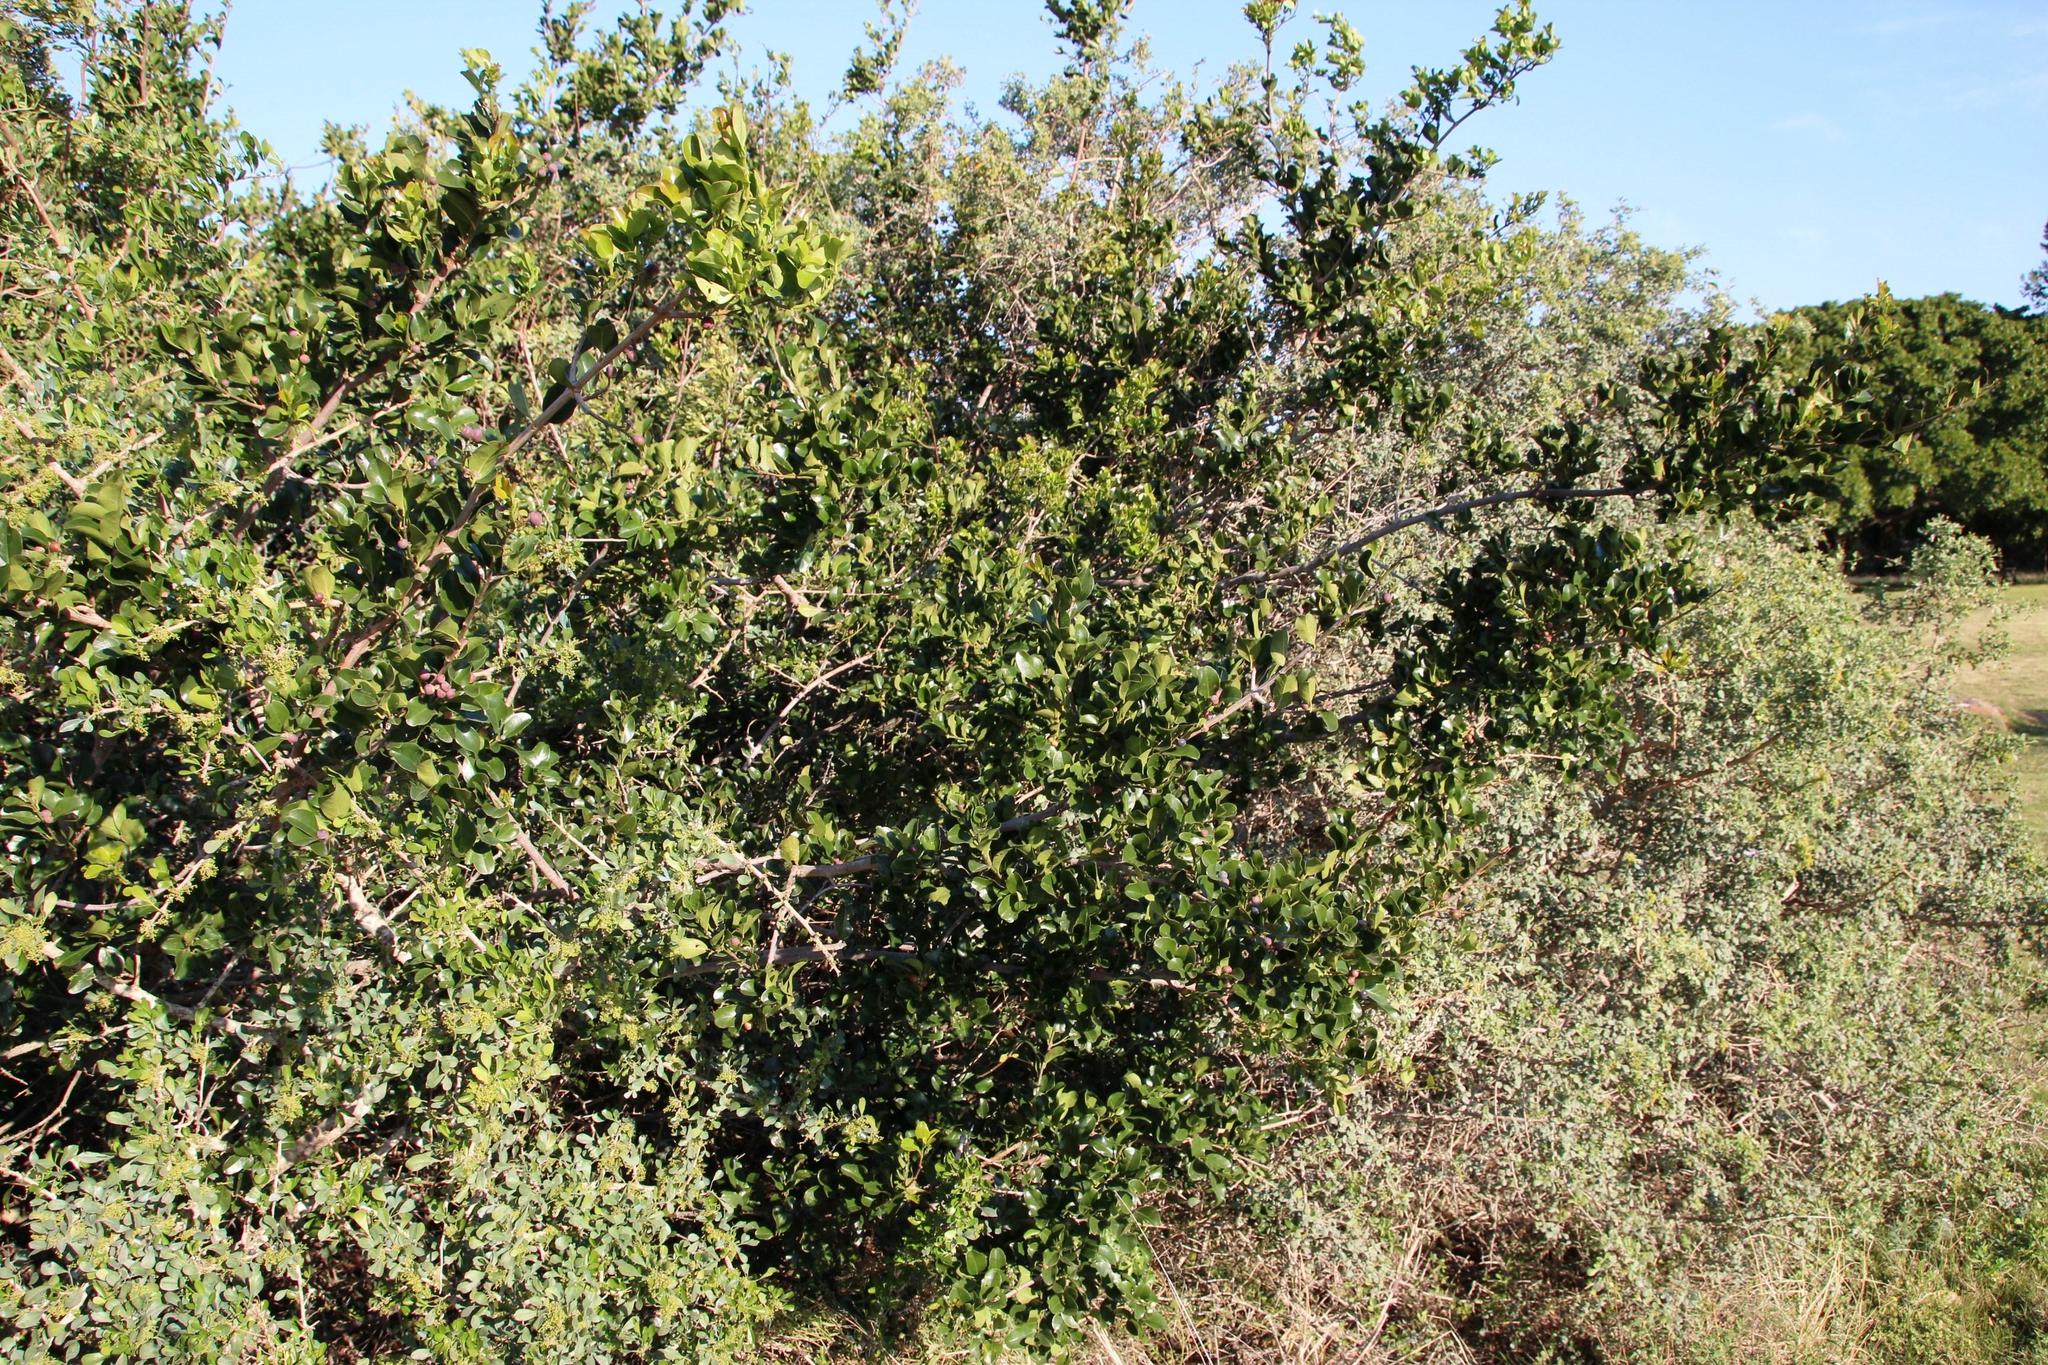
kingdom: Plantae
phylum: Tracheophyta
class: Magnoliopsida
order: Rosales
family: Rhamnaceae
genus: Scutia
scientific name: Scutia myrtina
